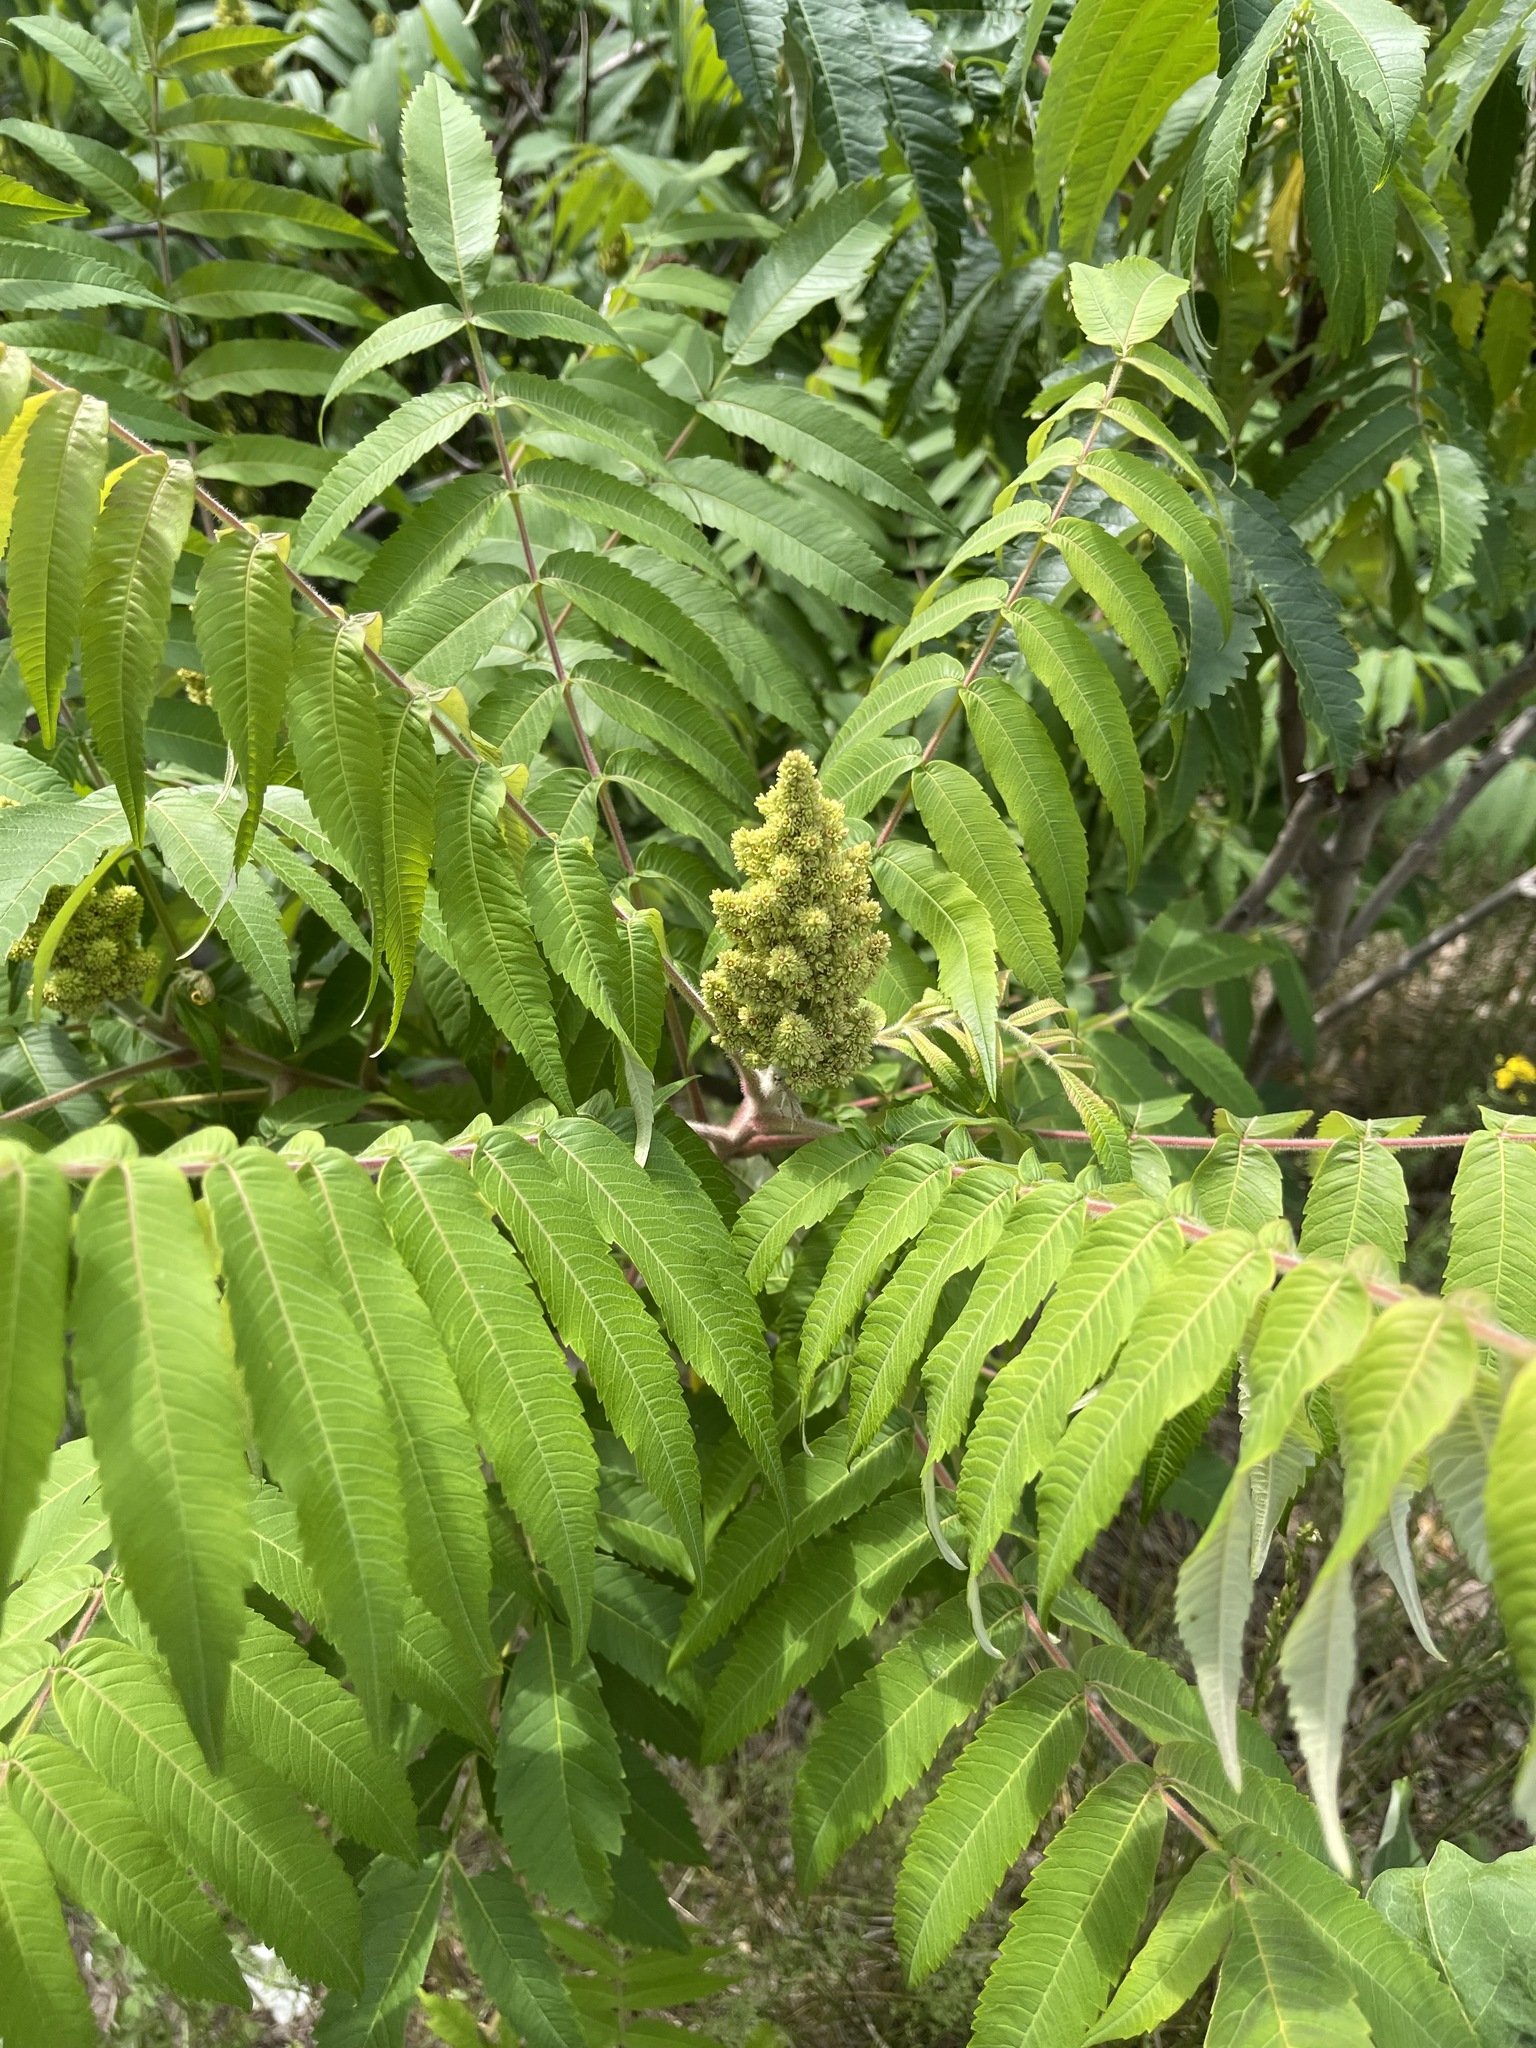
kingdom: Plantae
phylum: Tracheophyta
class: Magnoliopsida
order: Sapindales
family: Anacardiaceae
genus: Rhus
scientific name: Rhus typhina
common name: Staghorn sumac
